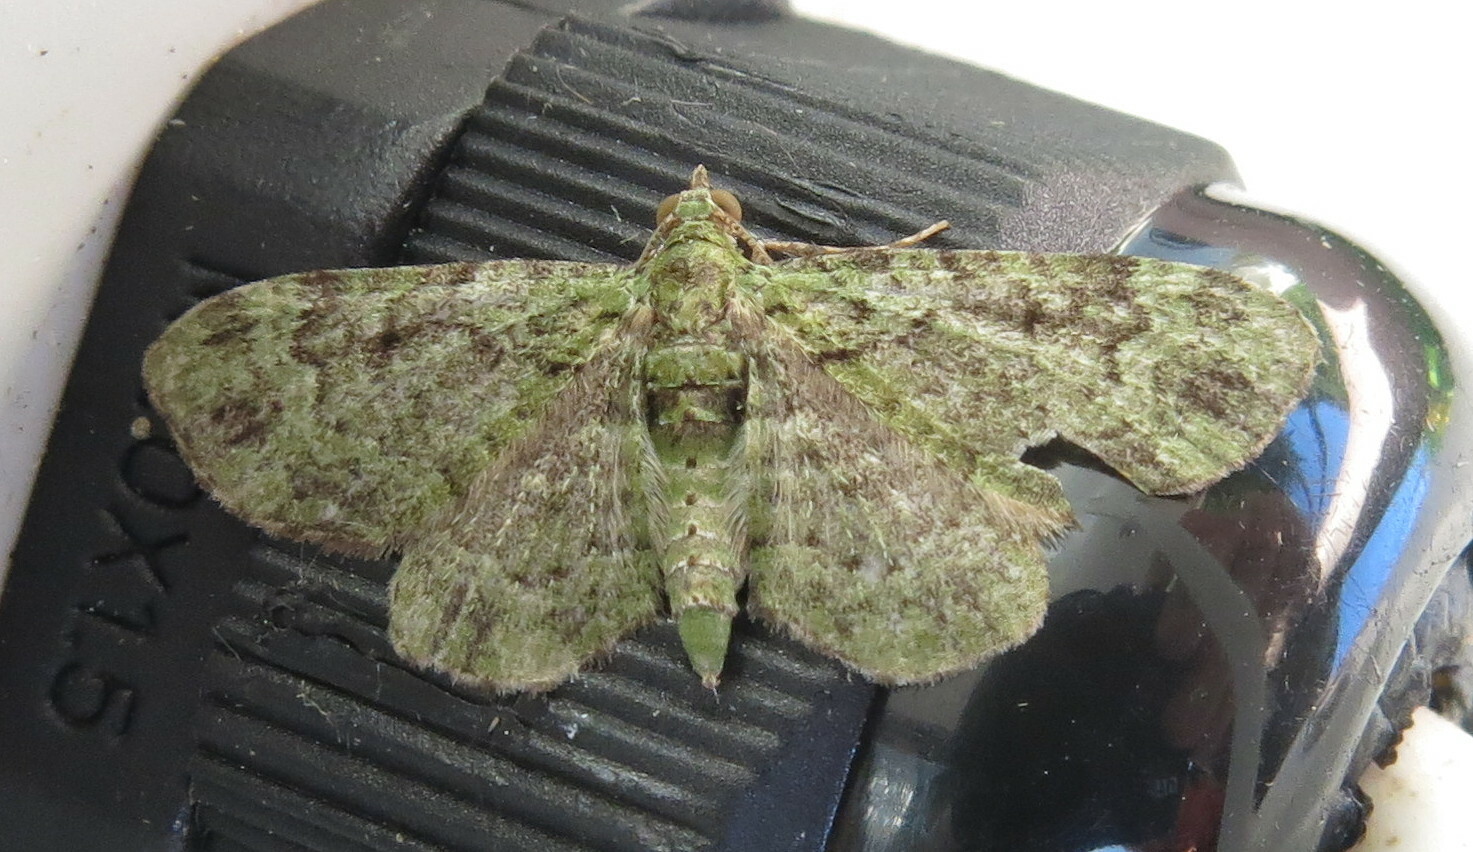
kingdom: Animalia
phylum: Arthropoda
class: Insecta
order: Lepidoptera
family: Geometridae
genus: Pasiphila
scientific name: Pasiphila rectangulata
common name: Green pug
